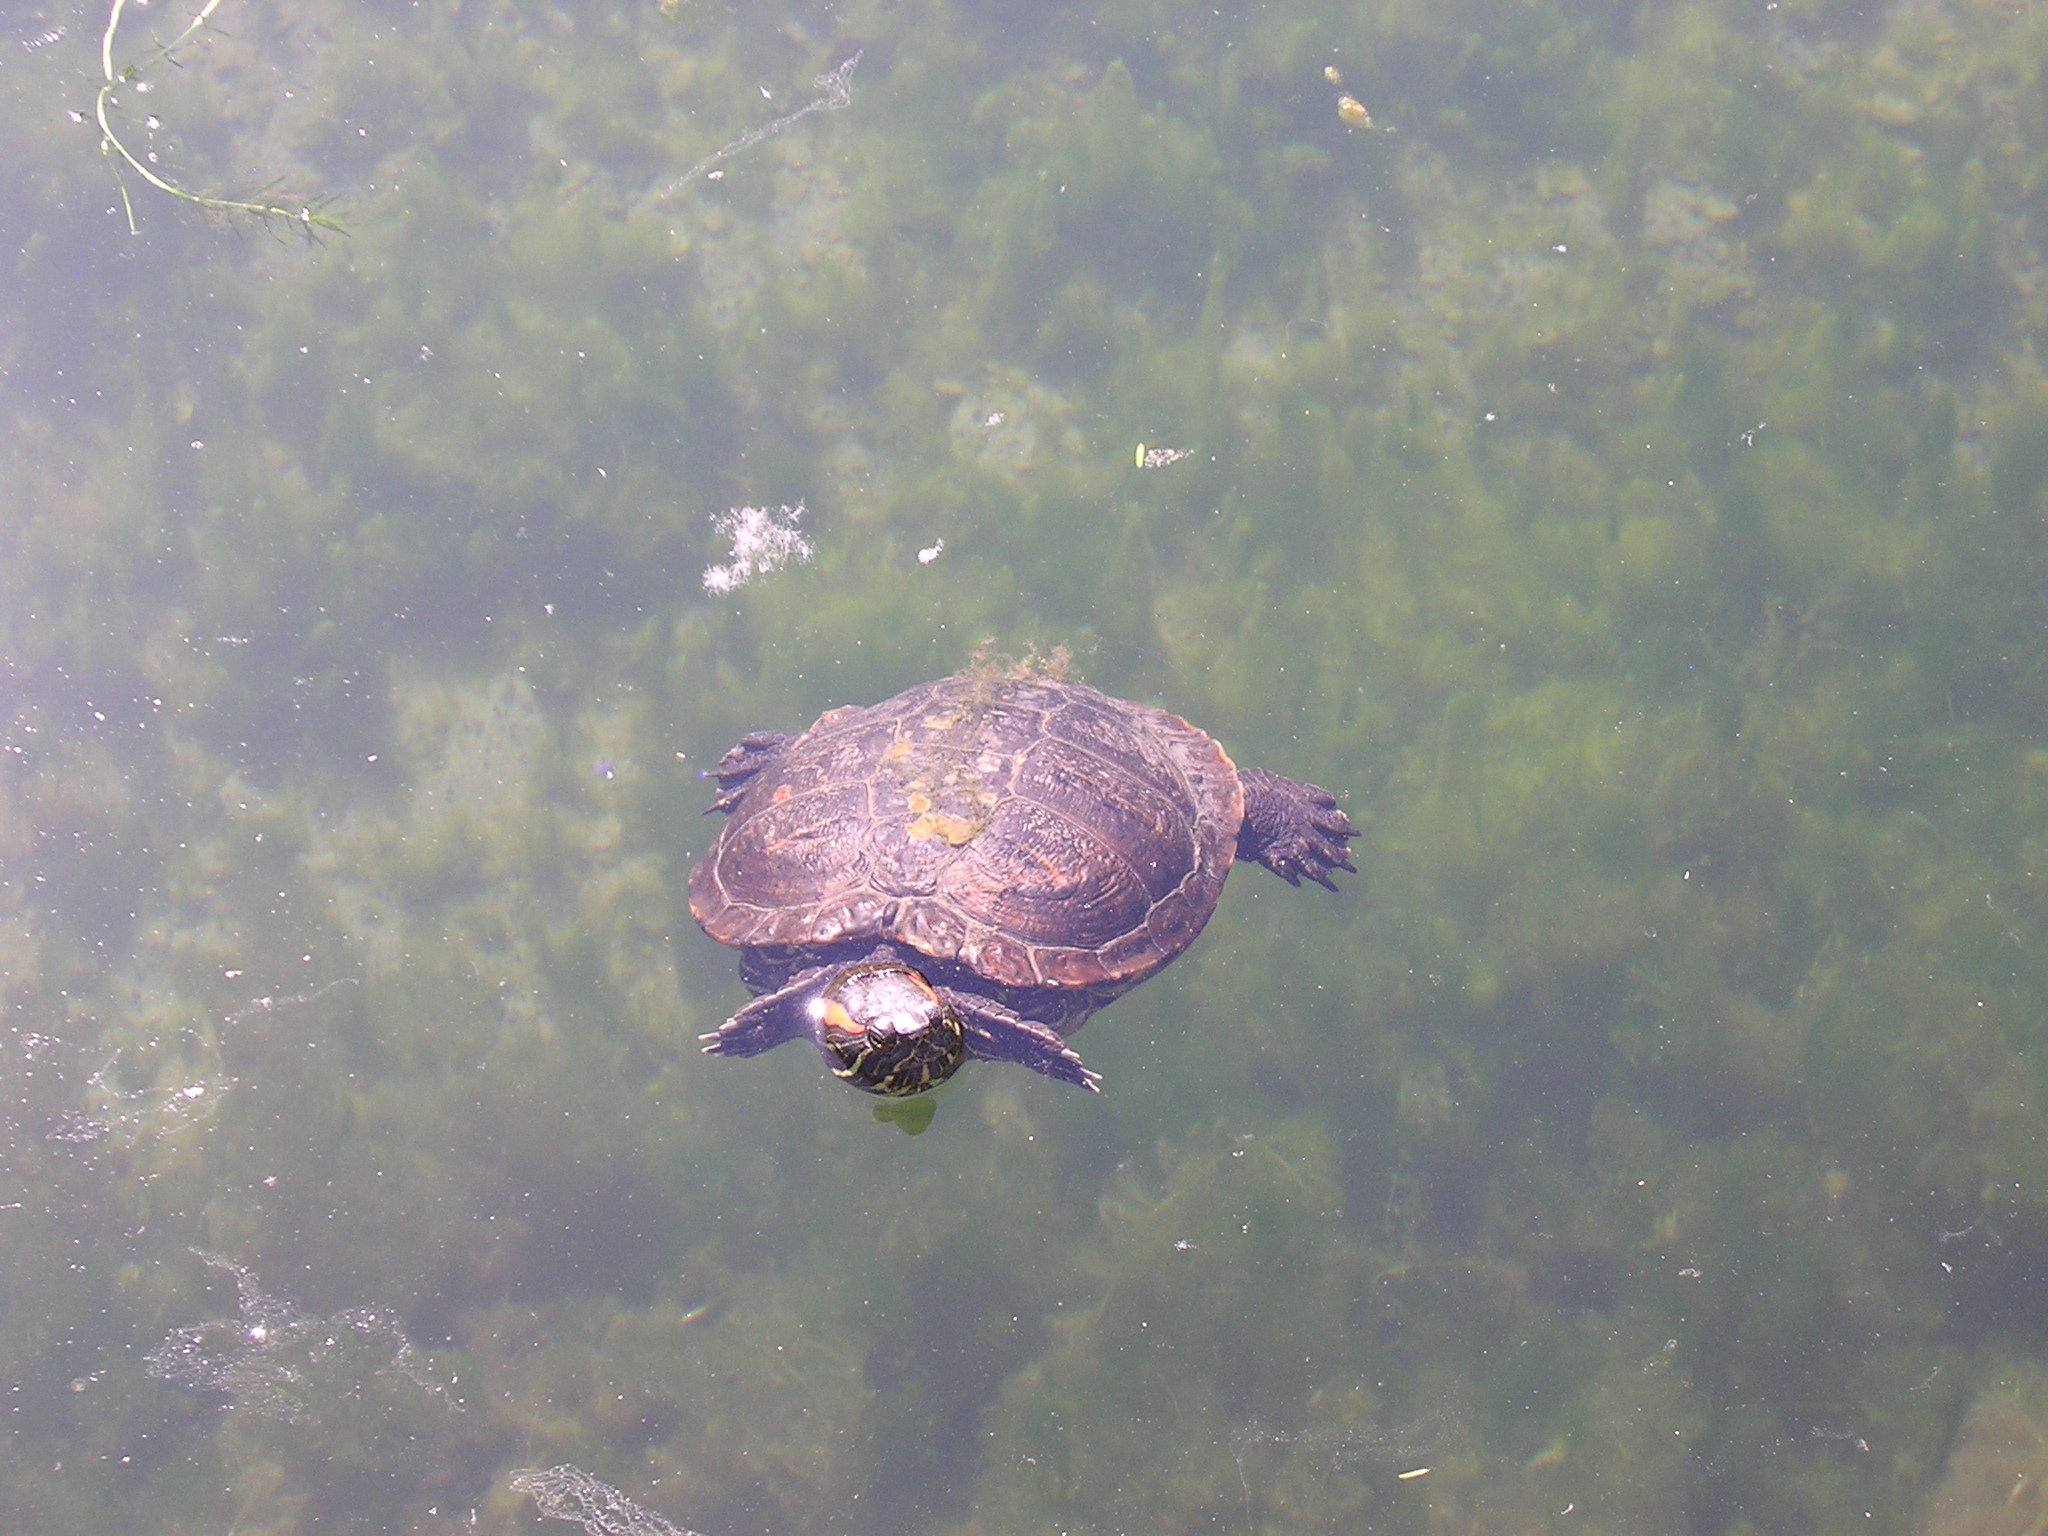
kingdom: Animalia
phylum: Chordata
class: Testudines
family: Emydidae
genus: Trachemys
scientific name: Trachemys scripta
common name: Slider
